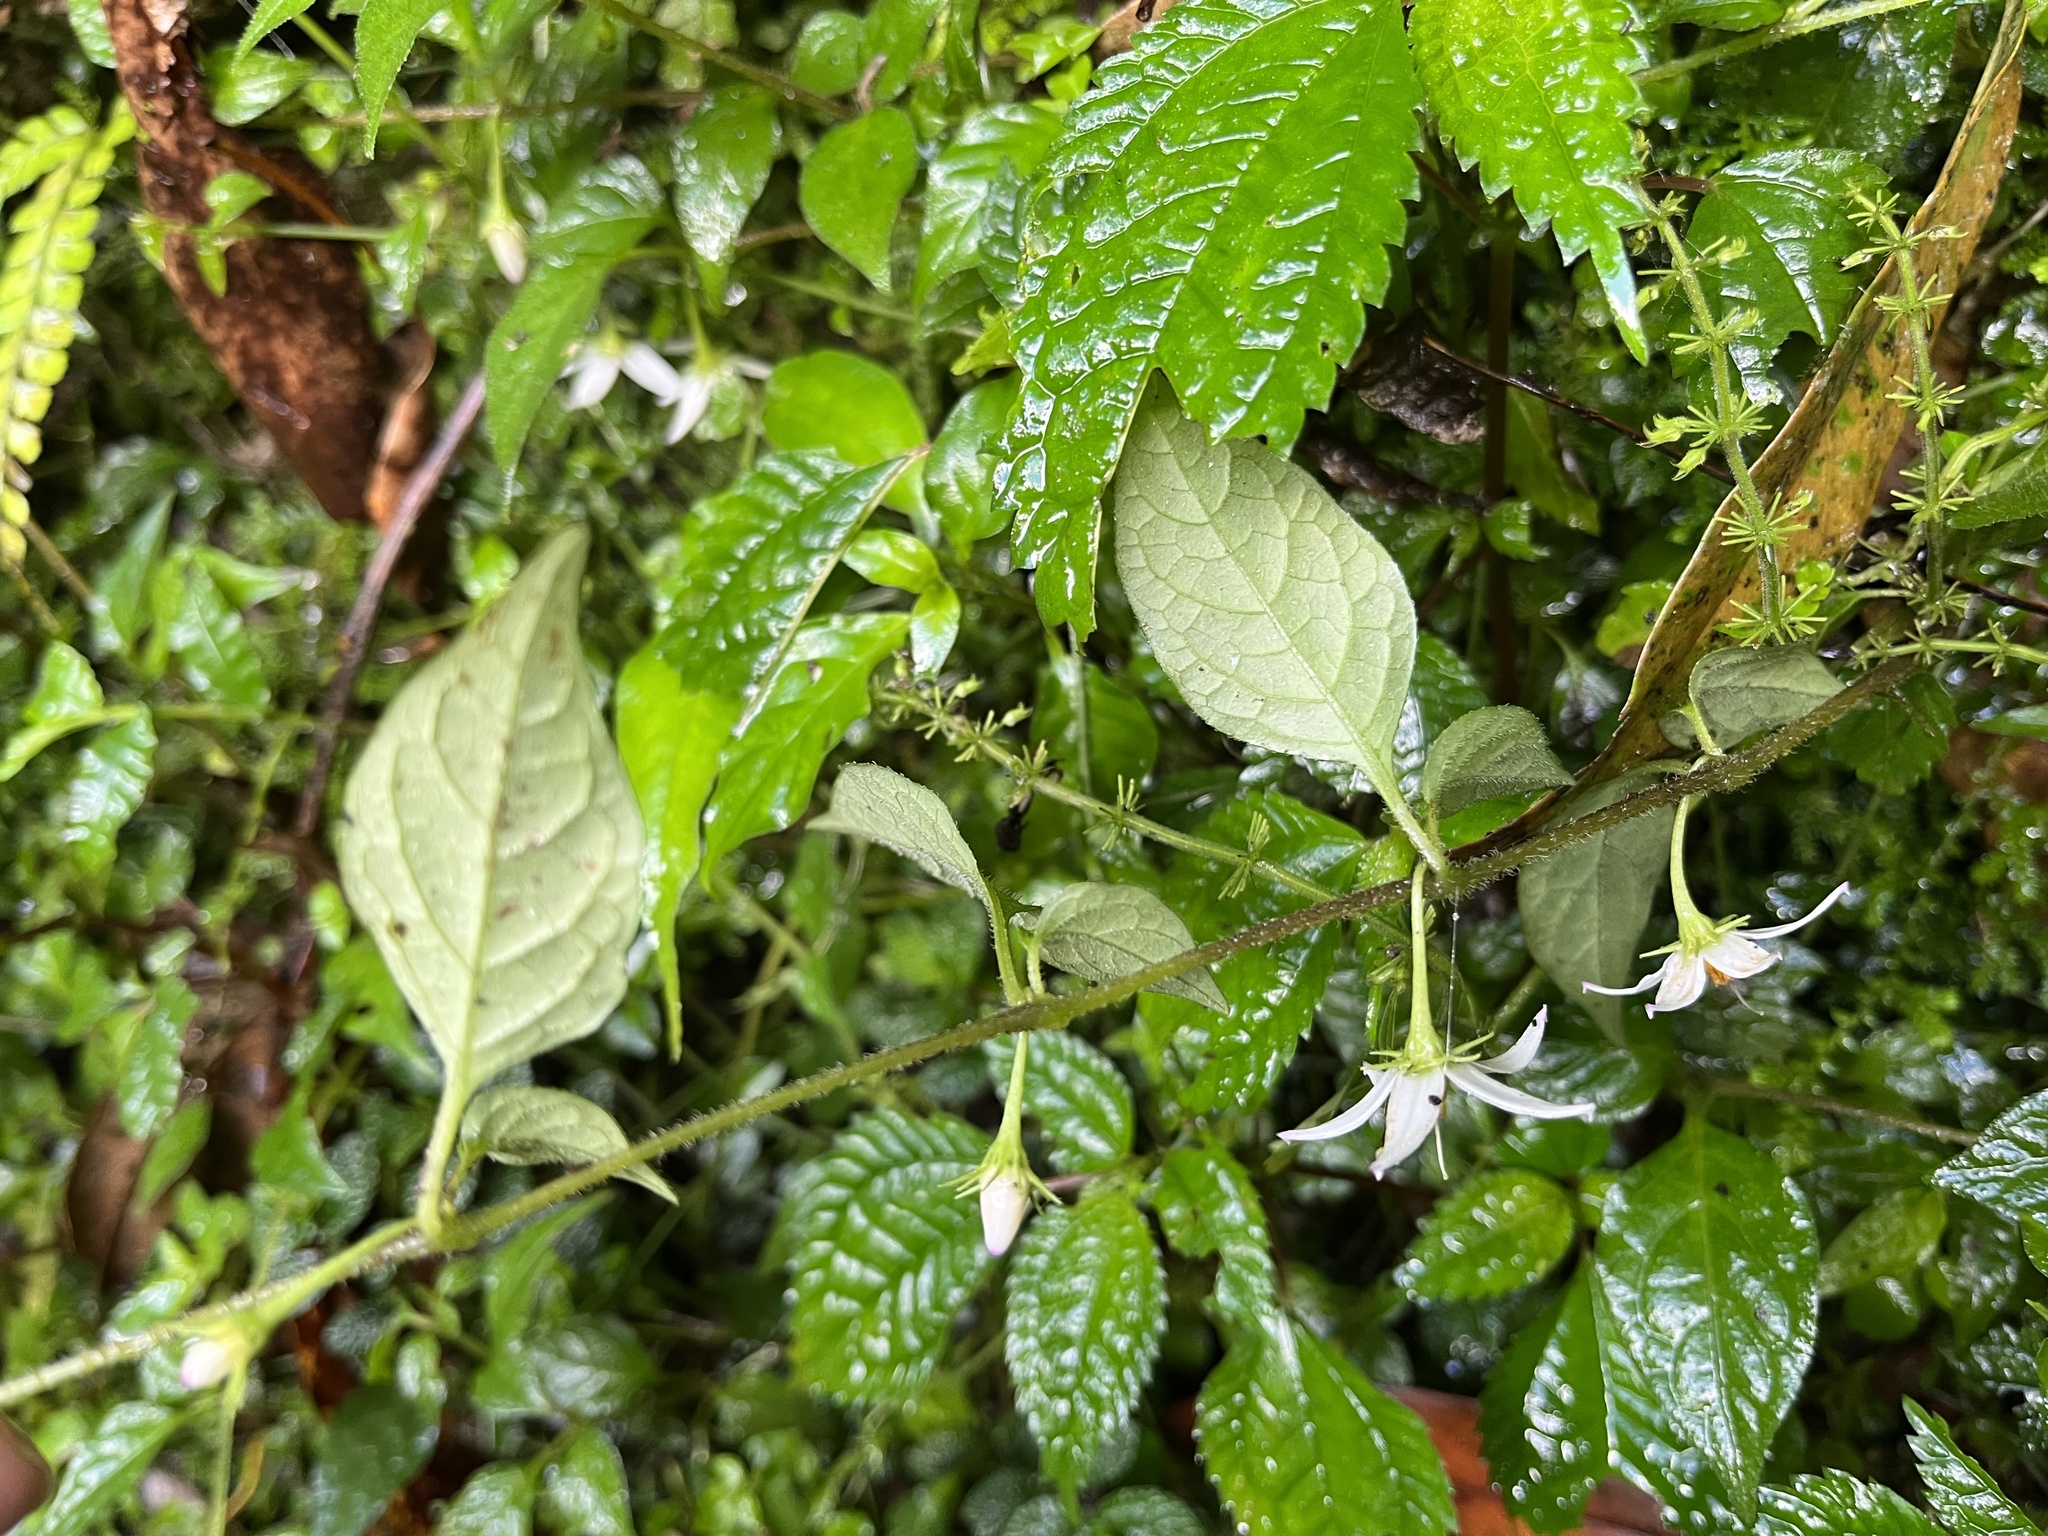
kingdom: Plantae
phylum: Tracheophyta
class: Magnoliopsida
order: Solanales
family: Solanaceae
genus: Lycianthes
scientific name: Lycianthes lysimachioides
